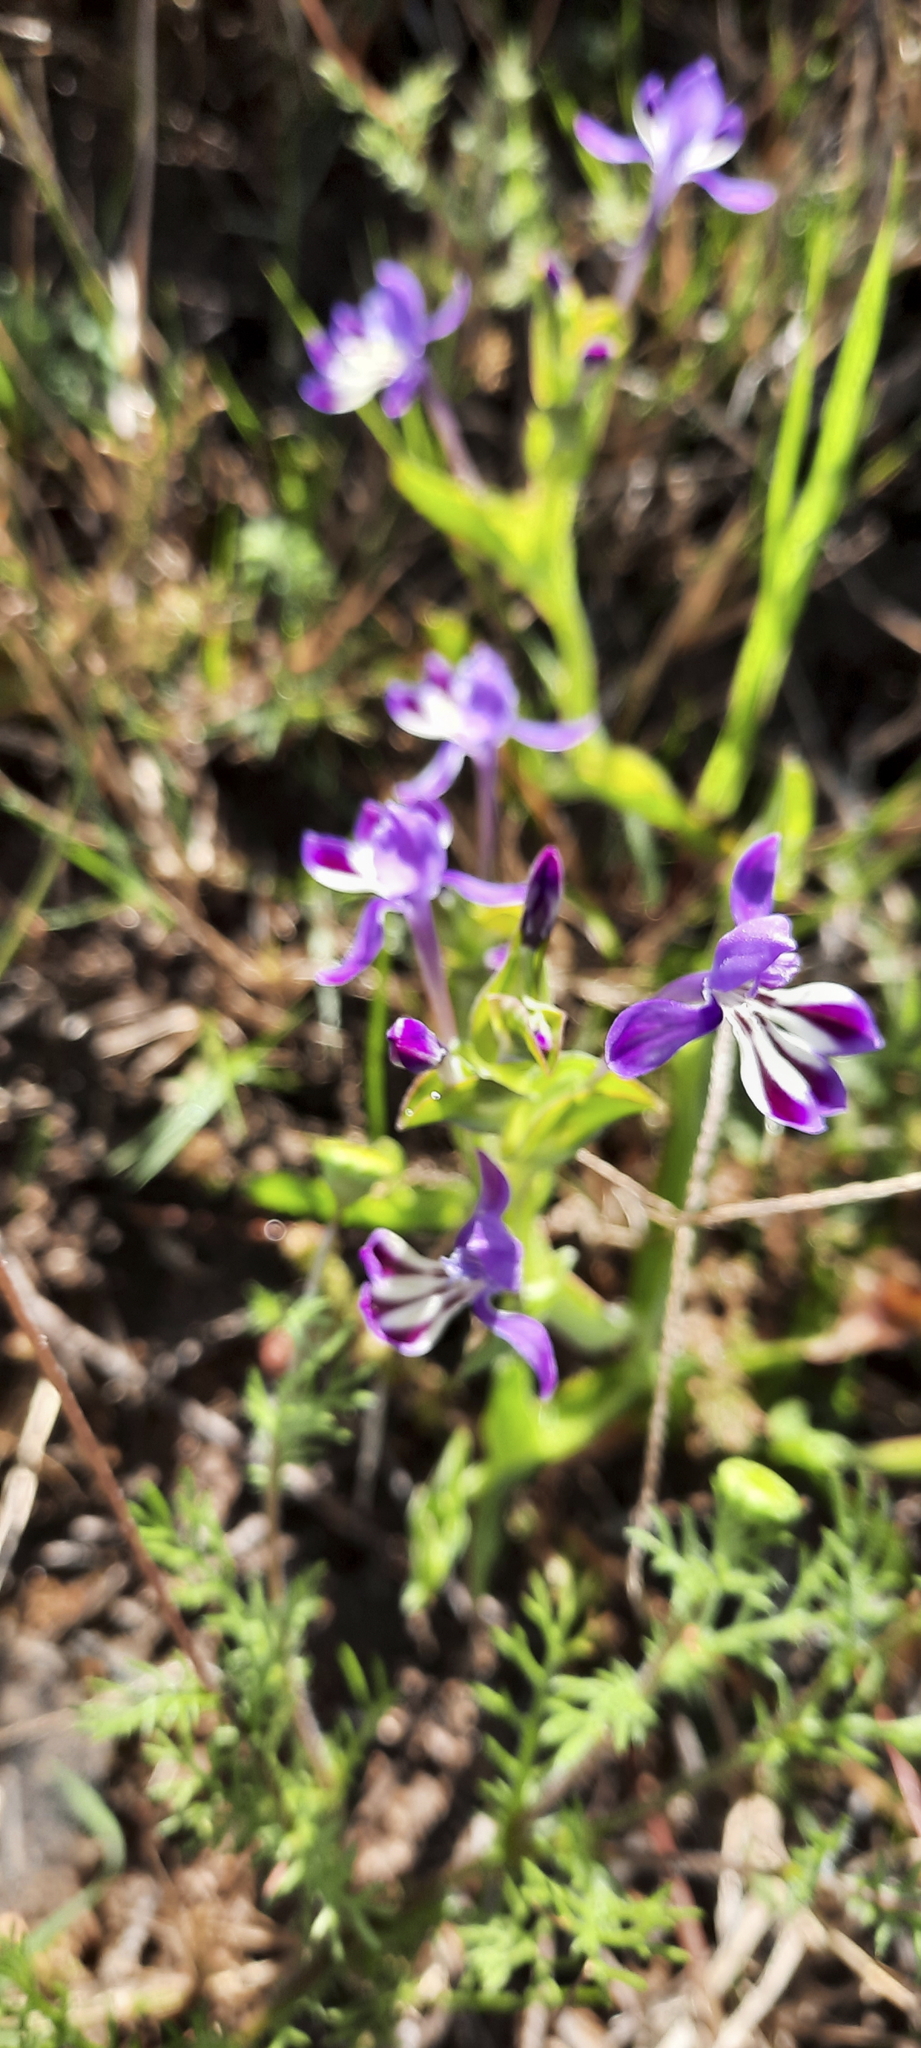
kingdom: Plantae
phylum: Tracheophyta
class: Liliopsida
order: Asparagales
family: Iridaceae
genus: Lapeirousia
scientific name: Lapeirousia jacquinii
